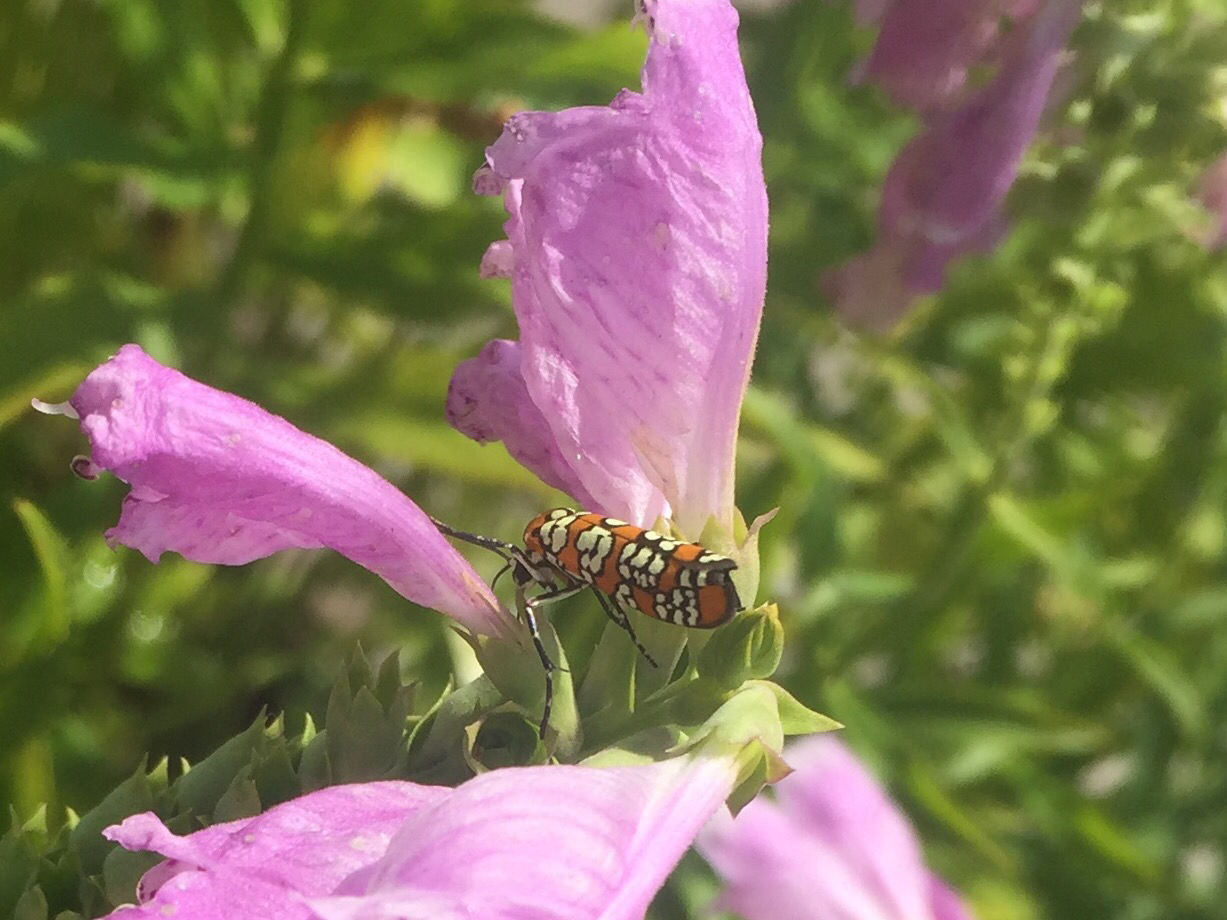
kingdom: Animalia
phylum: Arthropoda
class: Insecta
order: Lepidoptera
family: Attevidae
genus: Atteva
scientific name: Atteva punctella
